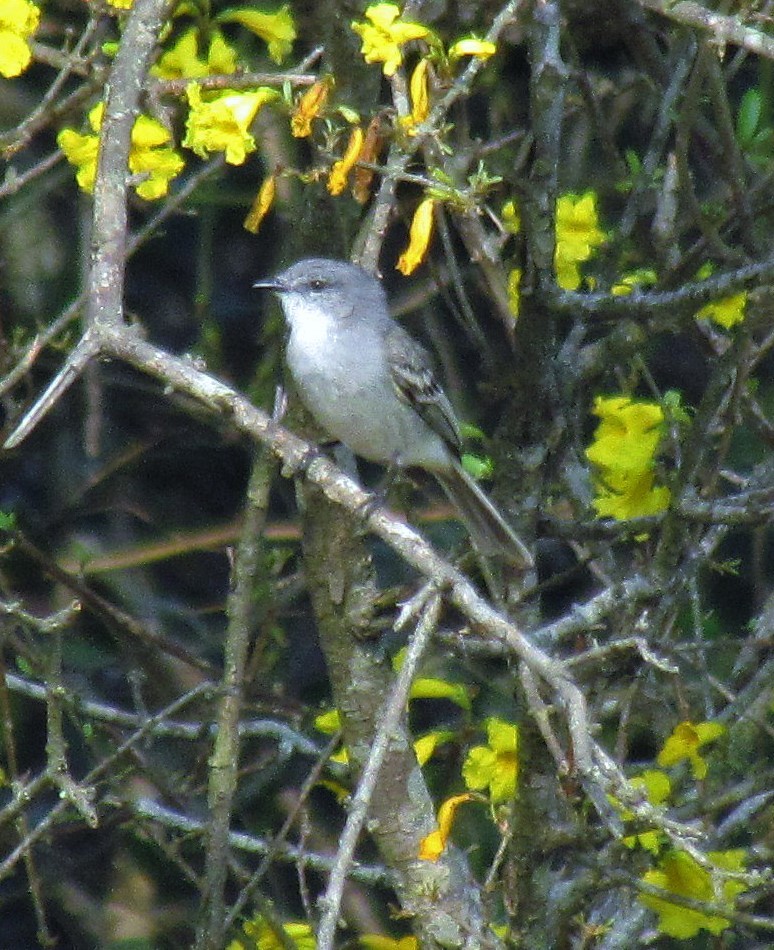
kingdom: Animalia
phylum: Chordata
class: Aves
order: Passeriformes
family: Tyrannidae
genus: Suiriri
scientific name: Suiriri suiriri
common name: Suiriri flycatcher
